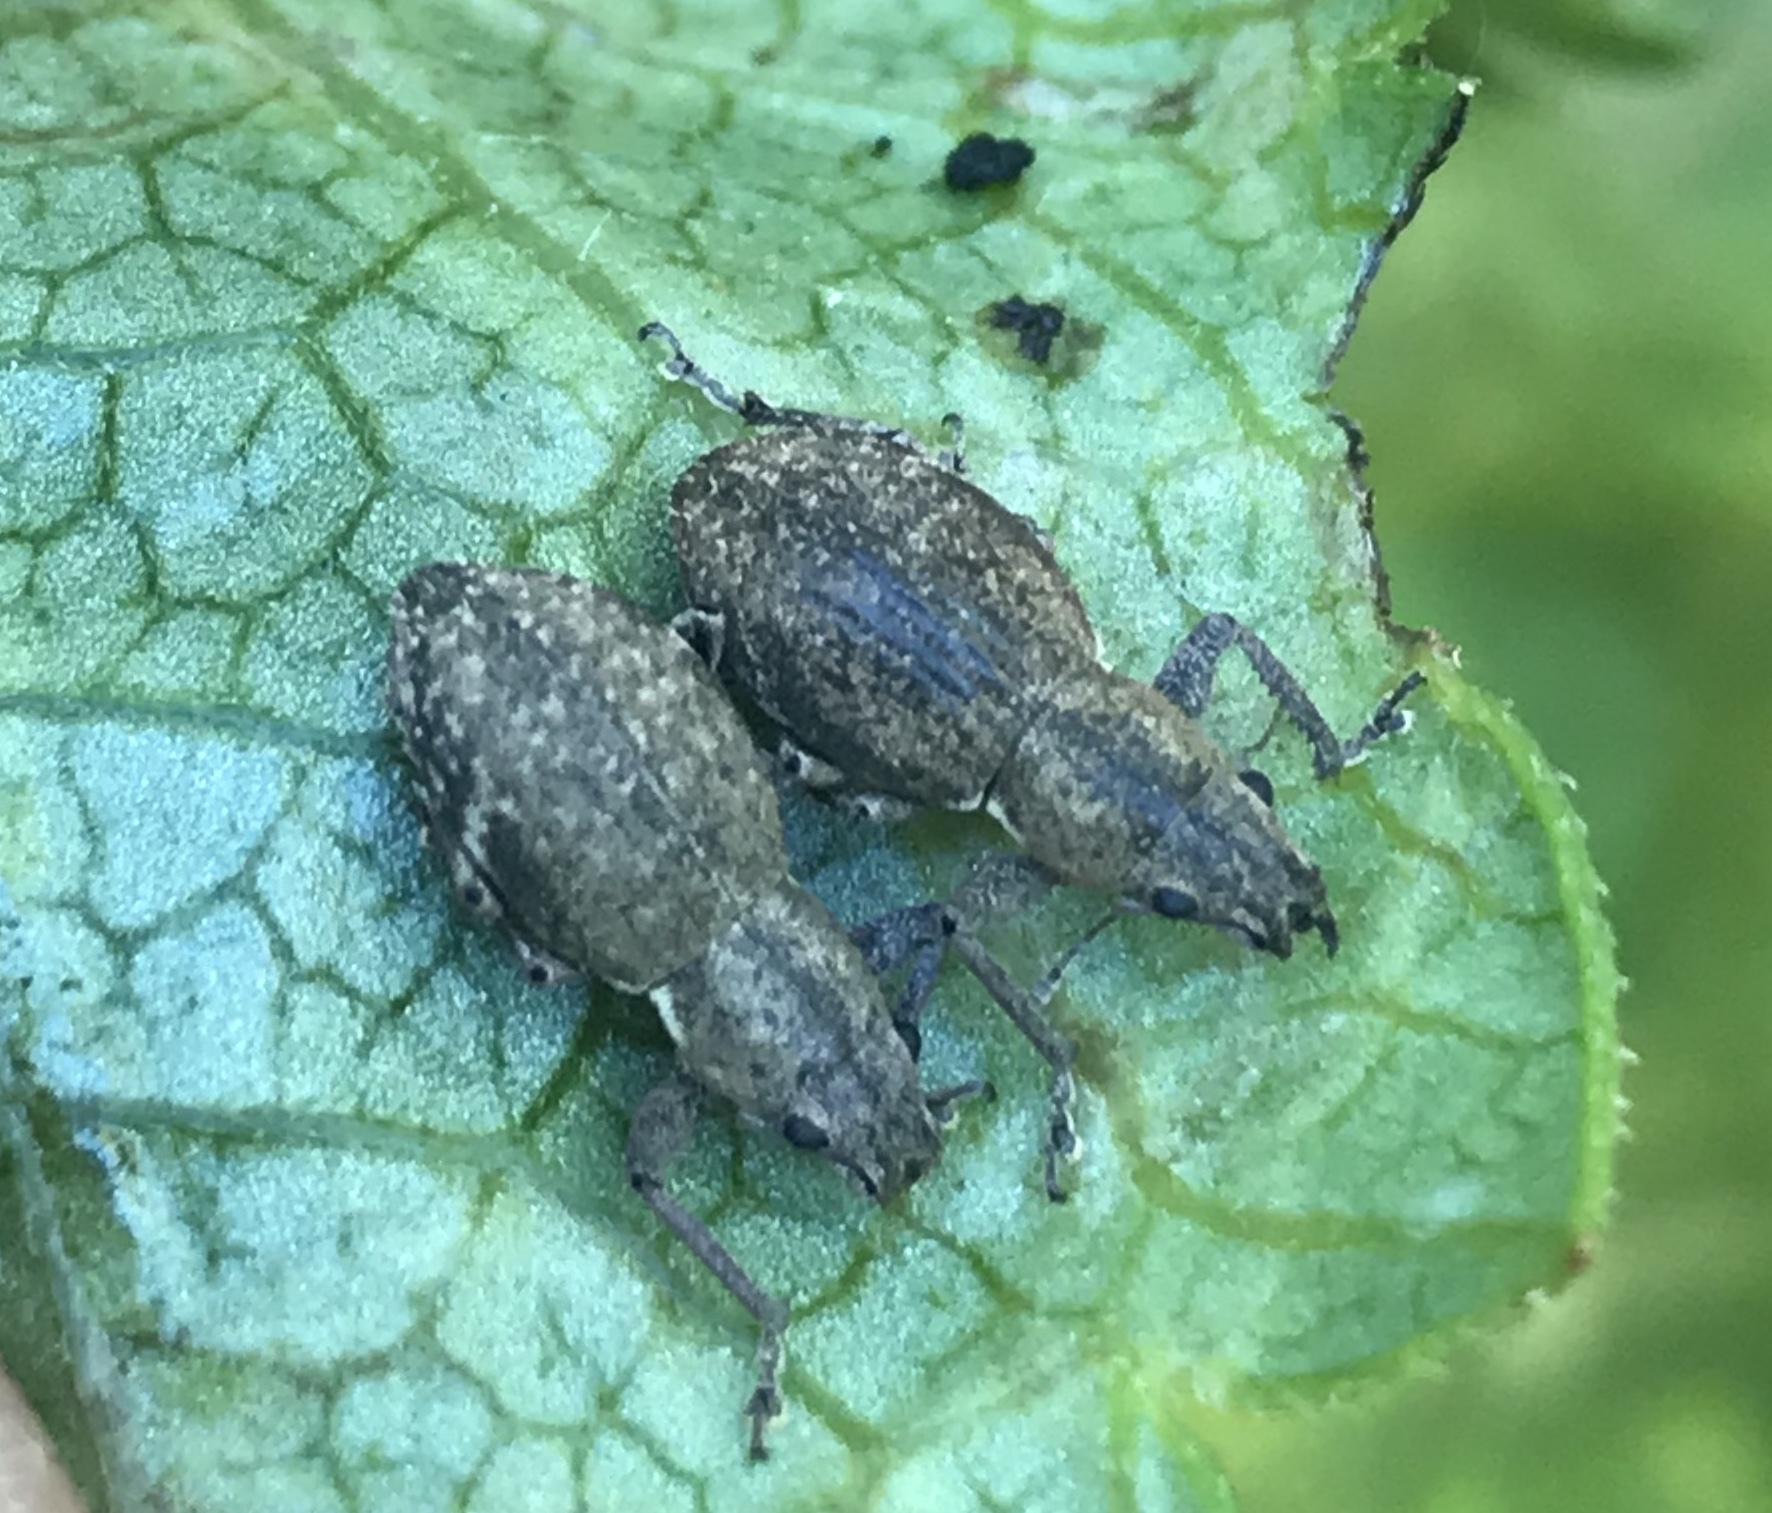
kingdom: Animalia
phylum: Arthropoda
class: Insecta
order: Coleoptera
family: Curculionidae
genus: Naupactus
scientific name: Naupactus cervinus
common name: Fuller rose beetle
